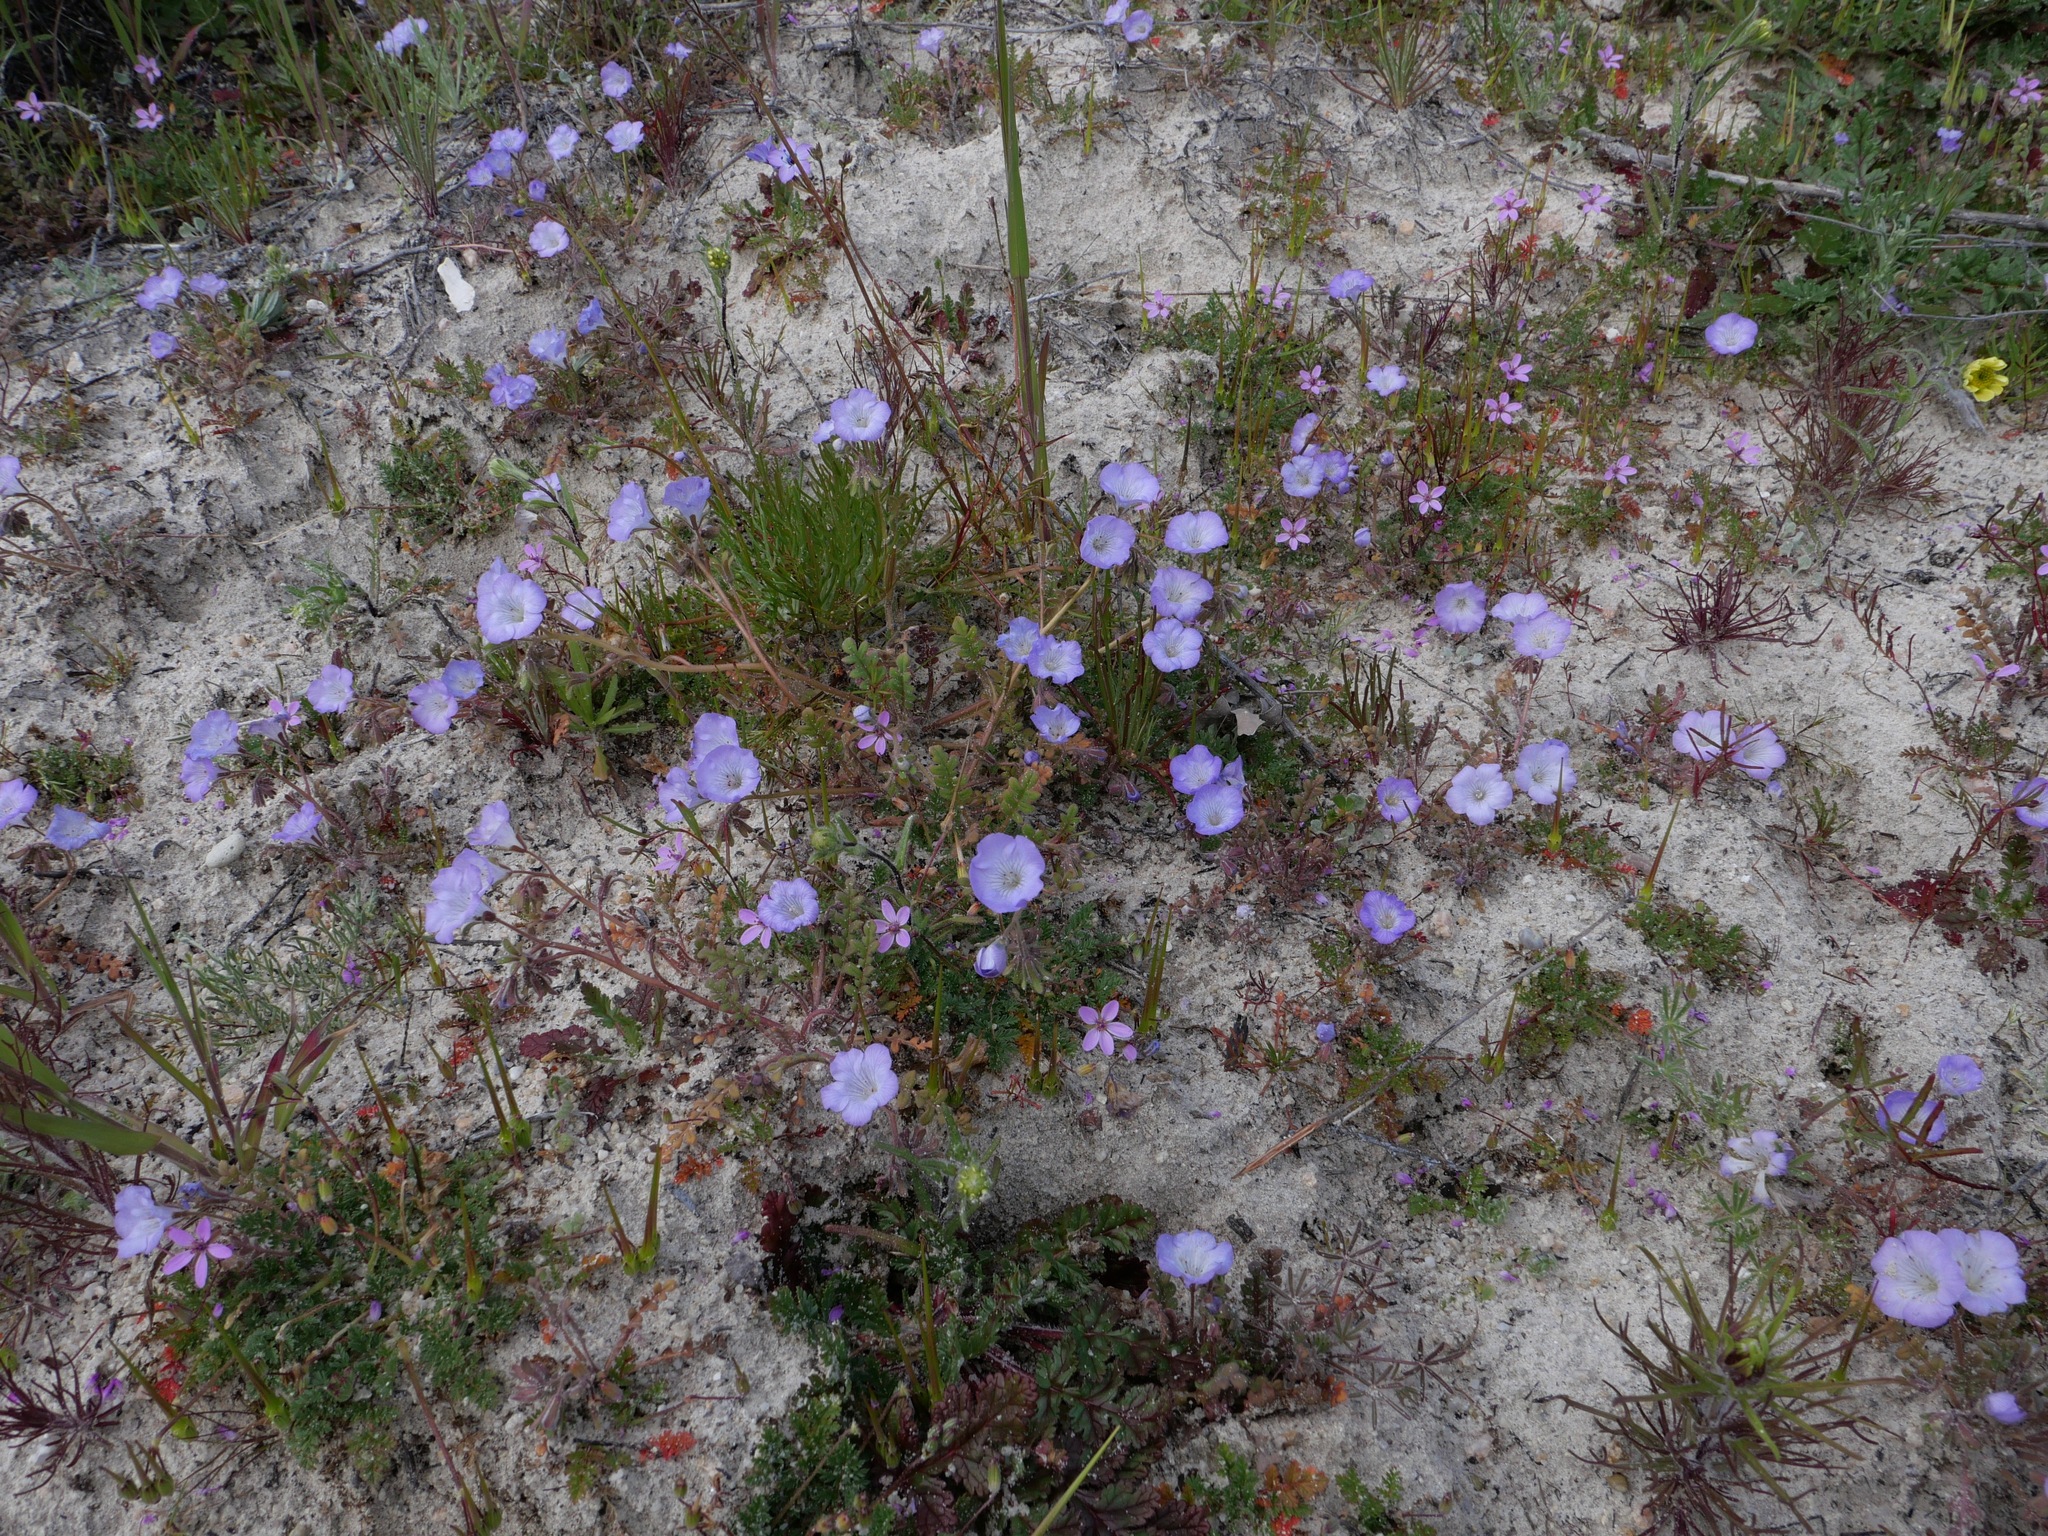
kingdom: Plantae
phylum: Tracheophyta
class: Magnoliopsida
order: Boraginales
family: Hydrophyllaceae
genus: Phacelia
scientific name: Phacelia douglasii
